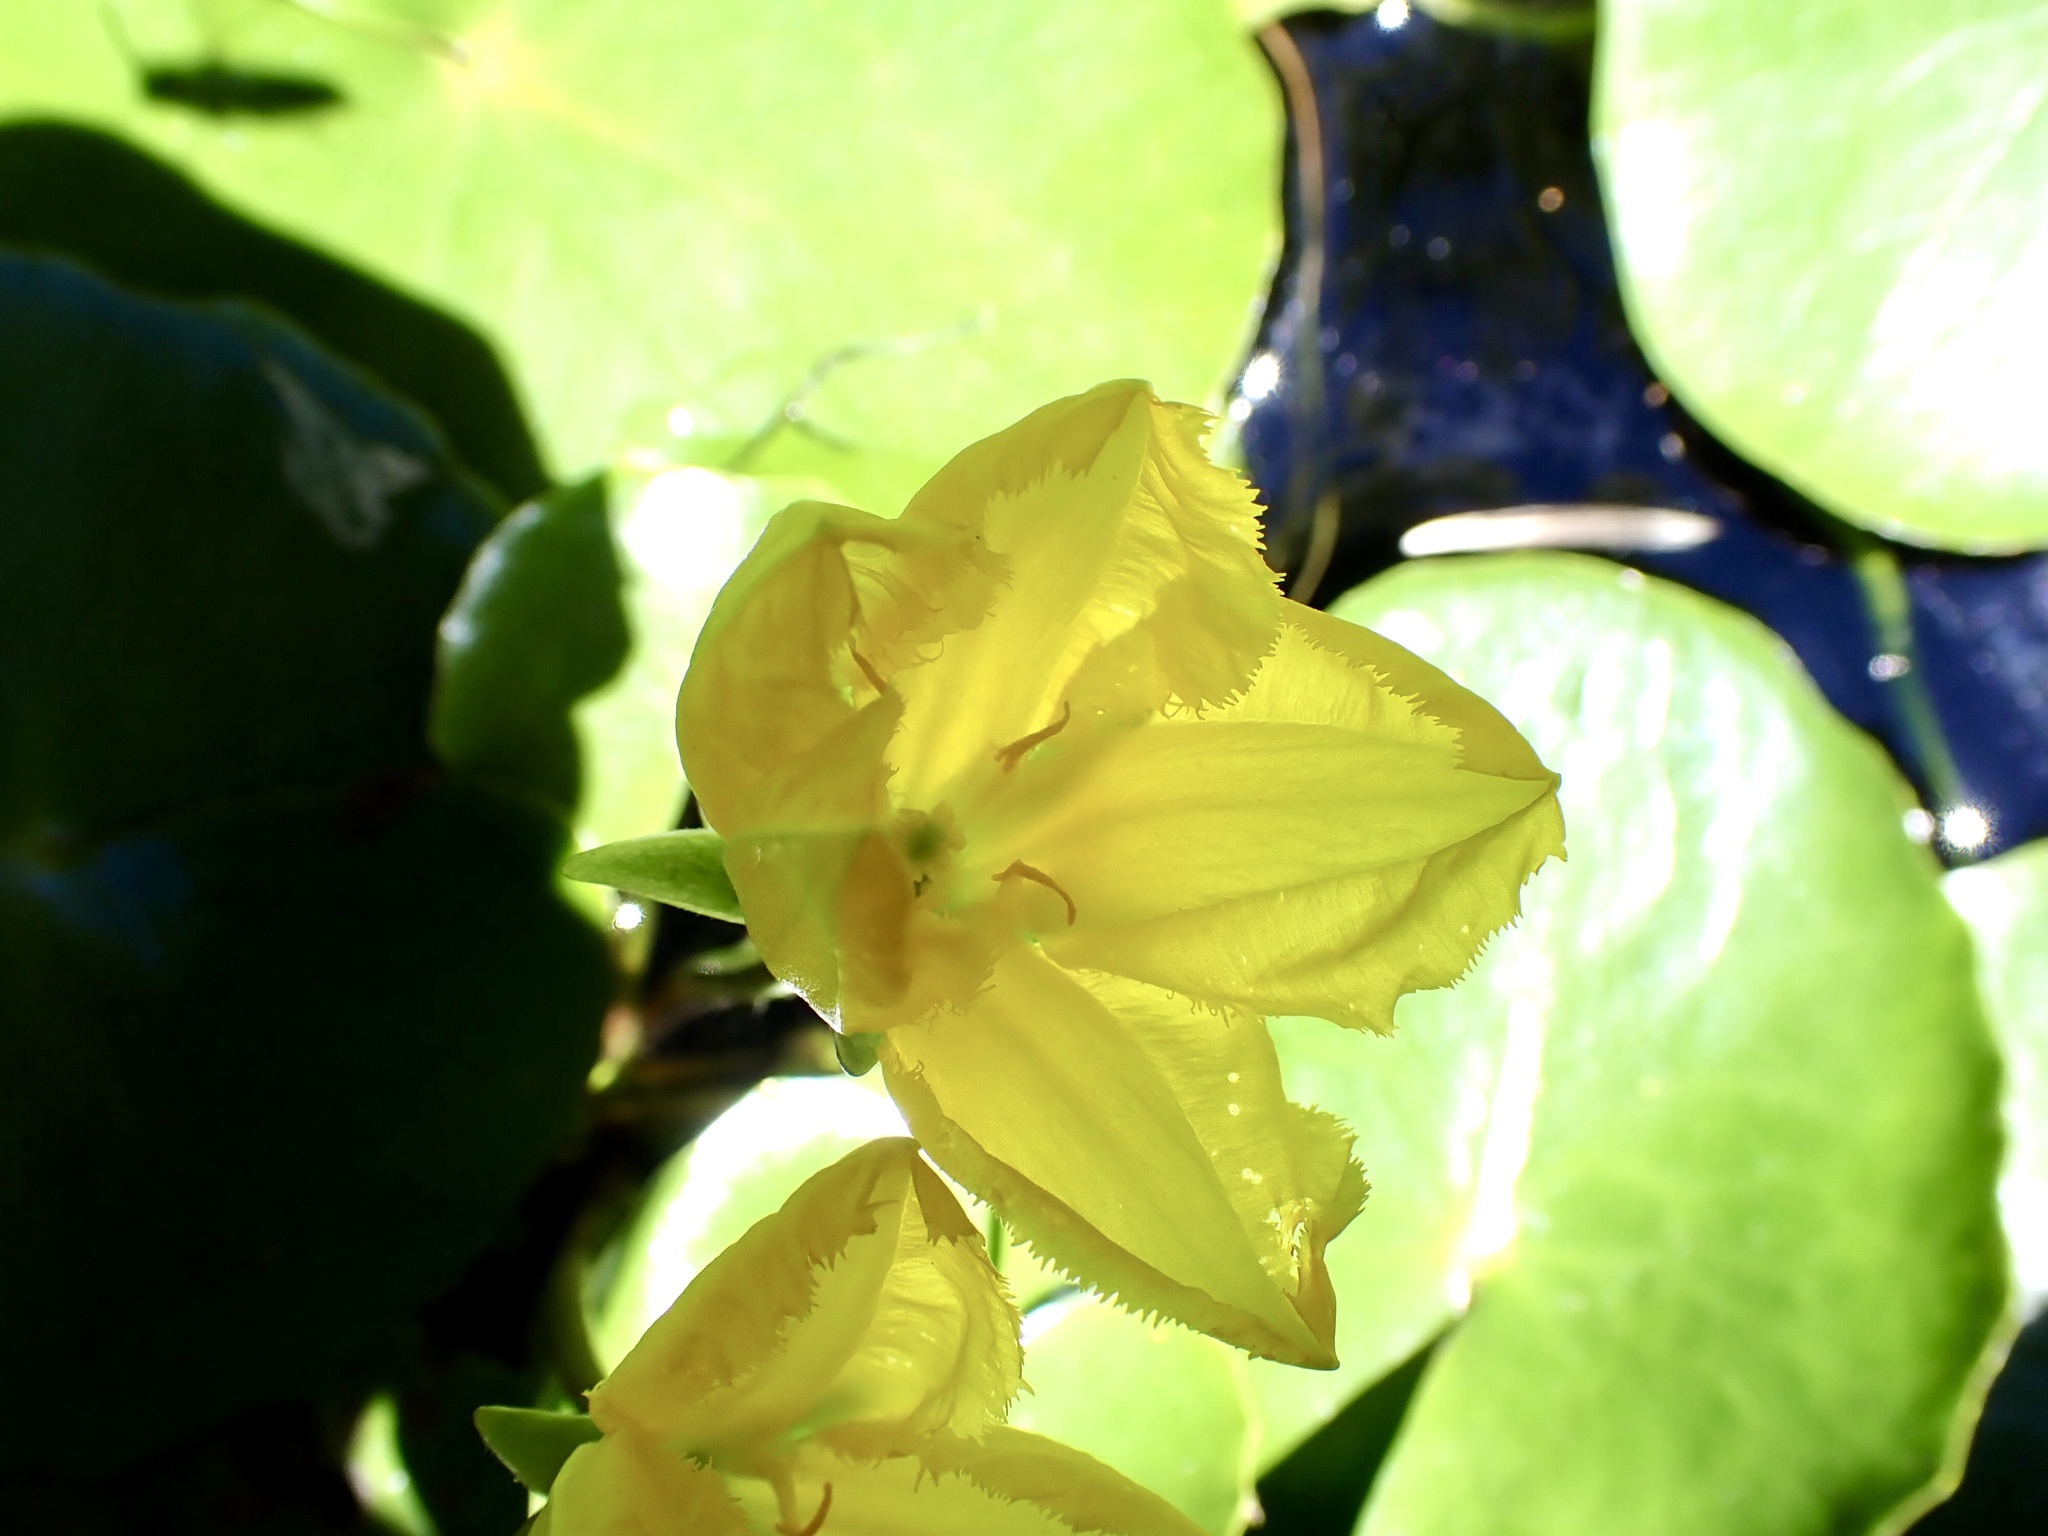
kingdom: Plantae
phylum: Tracheophyta
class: Magnoliopsida
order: Asterales
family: Menyanthaceae
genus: Nymphoides
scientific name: Nymphoides peltata
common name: Fringed water-lily
